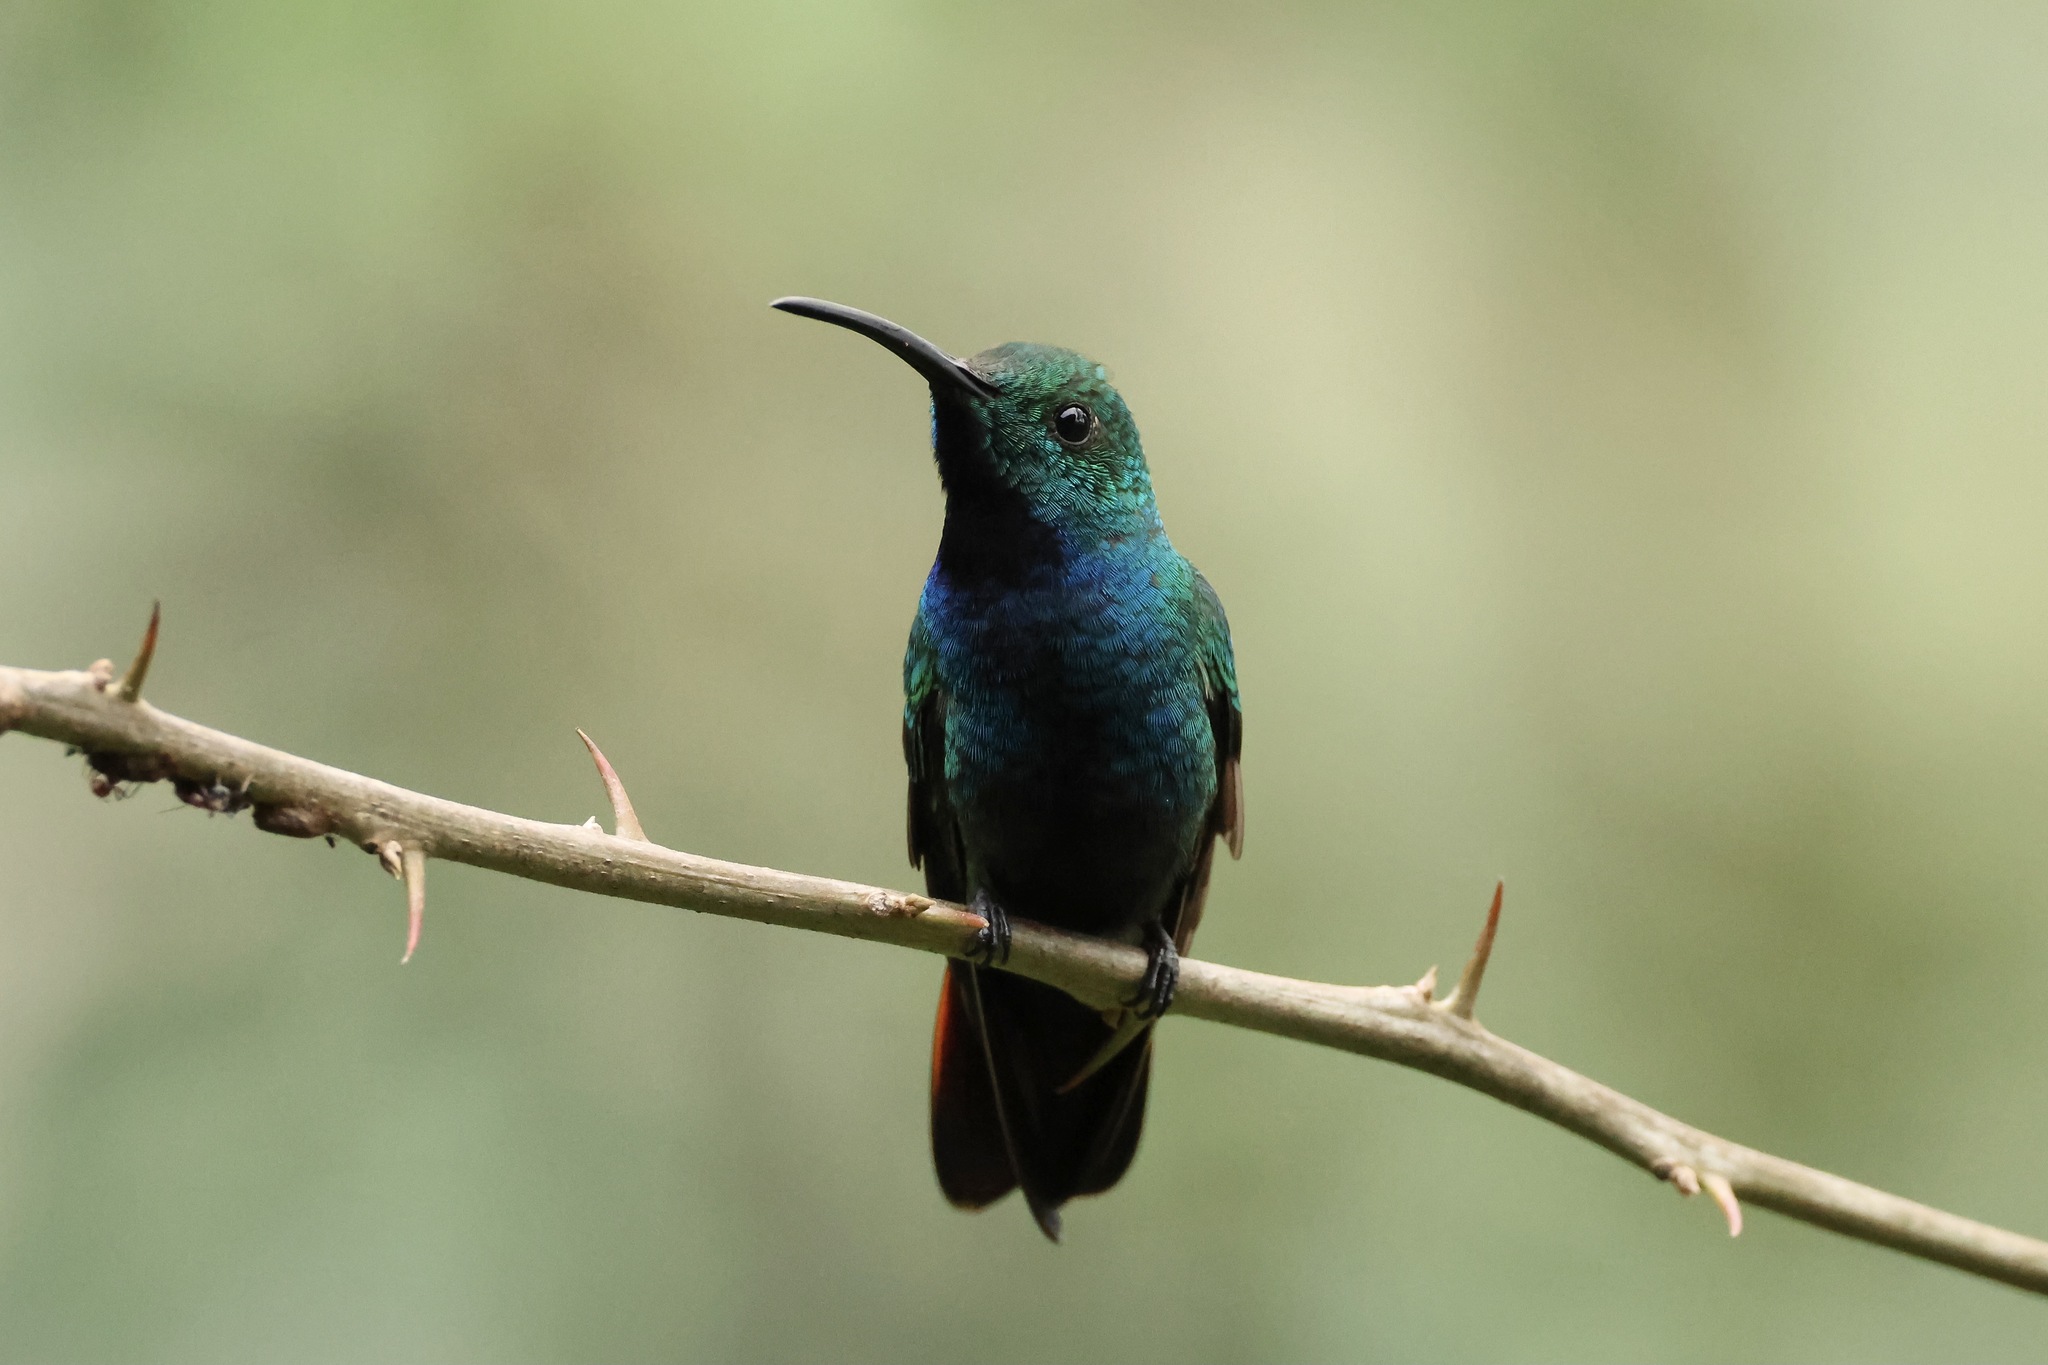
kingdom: Animalia
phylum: Chordata
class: Aves
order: Apodiformes
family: Trochilidae
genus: Anthracothorax
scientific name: Anthracothorax prevostii
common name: Green-breasted mango
